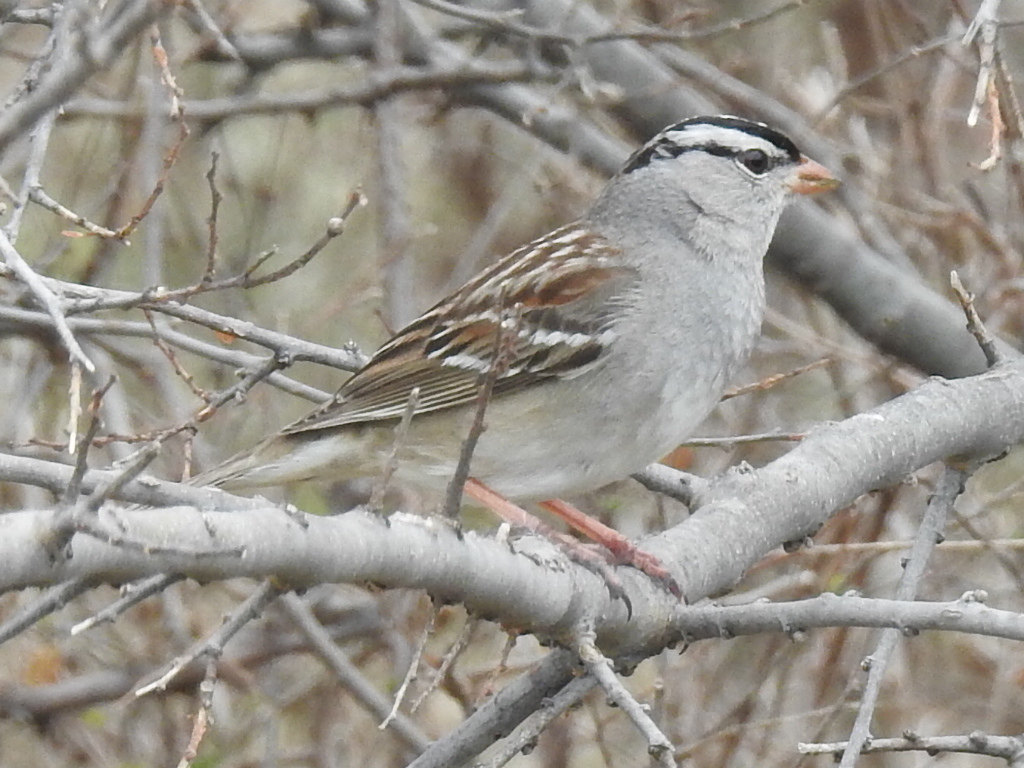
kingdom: Animalia
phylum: Chordata
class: Aves
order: Passeriformes
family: Passerellidae
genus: Zonotrichia
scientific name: Zonotrichia leucophrys
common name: White-crowned sparrow
